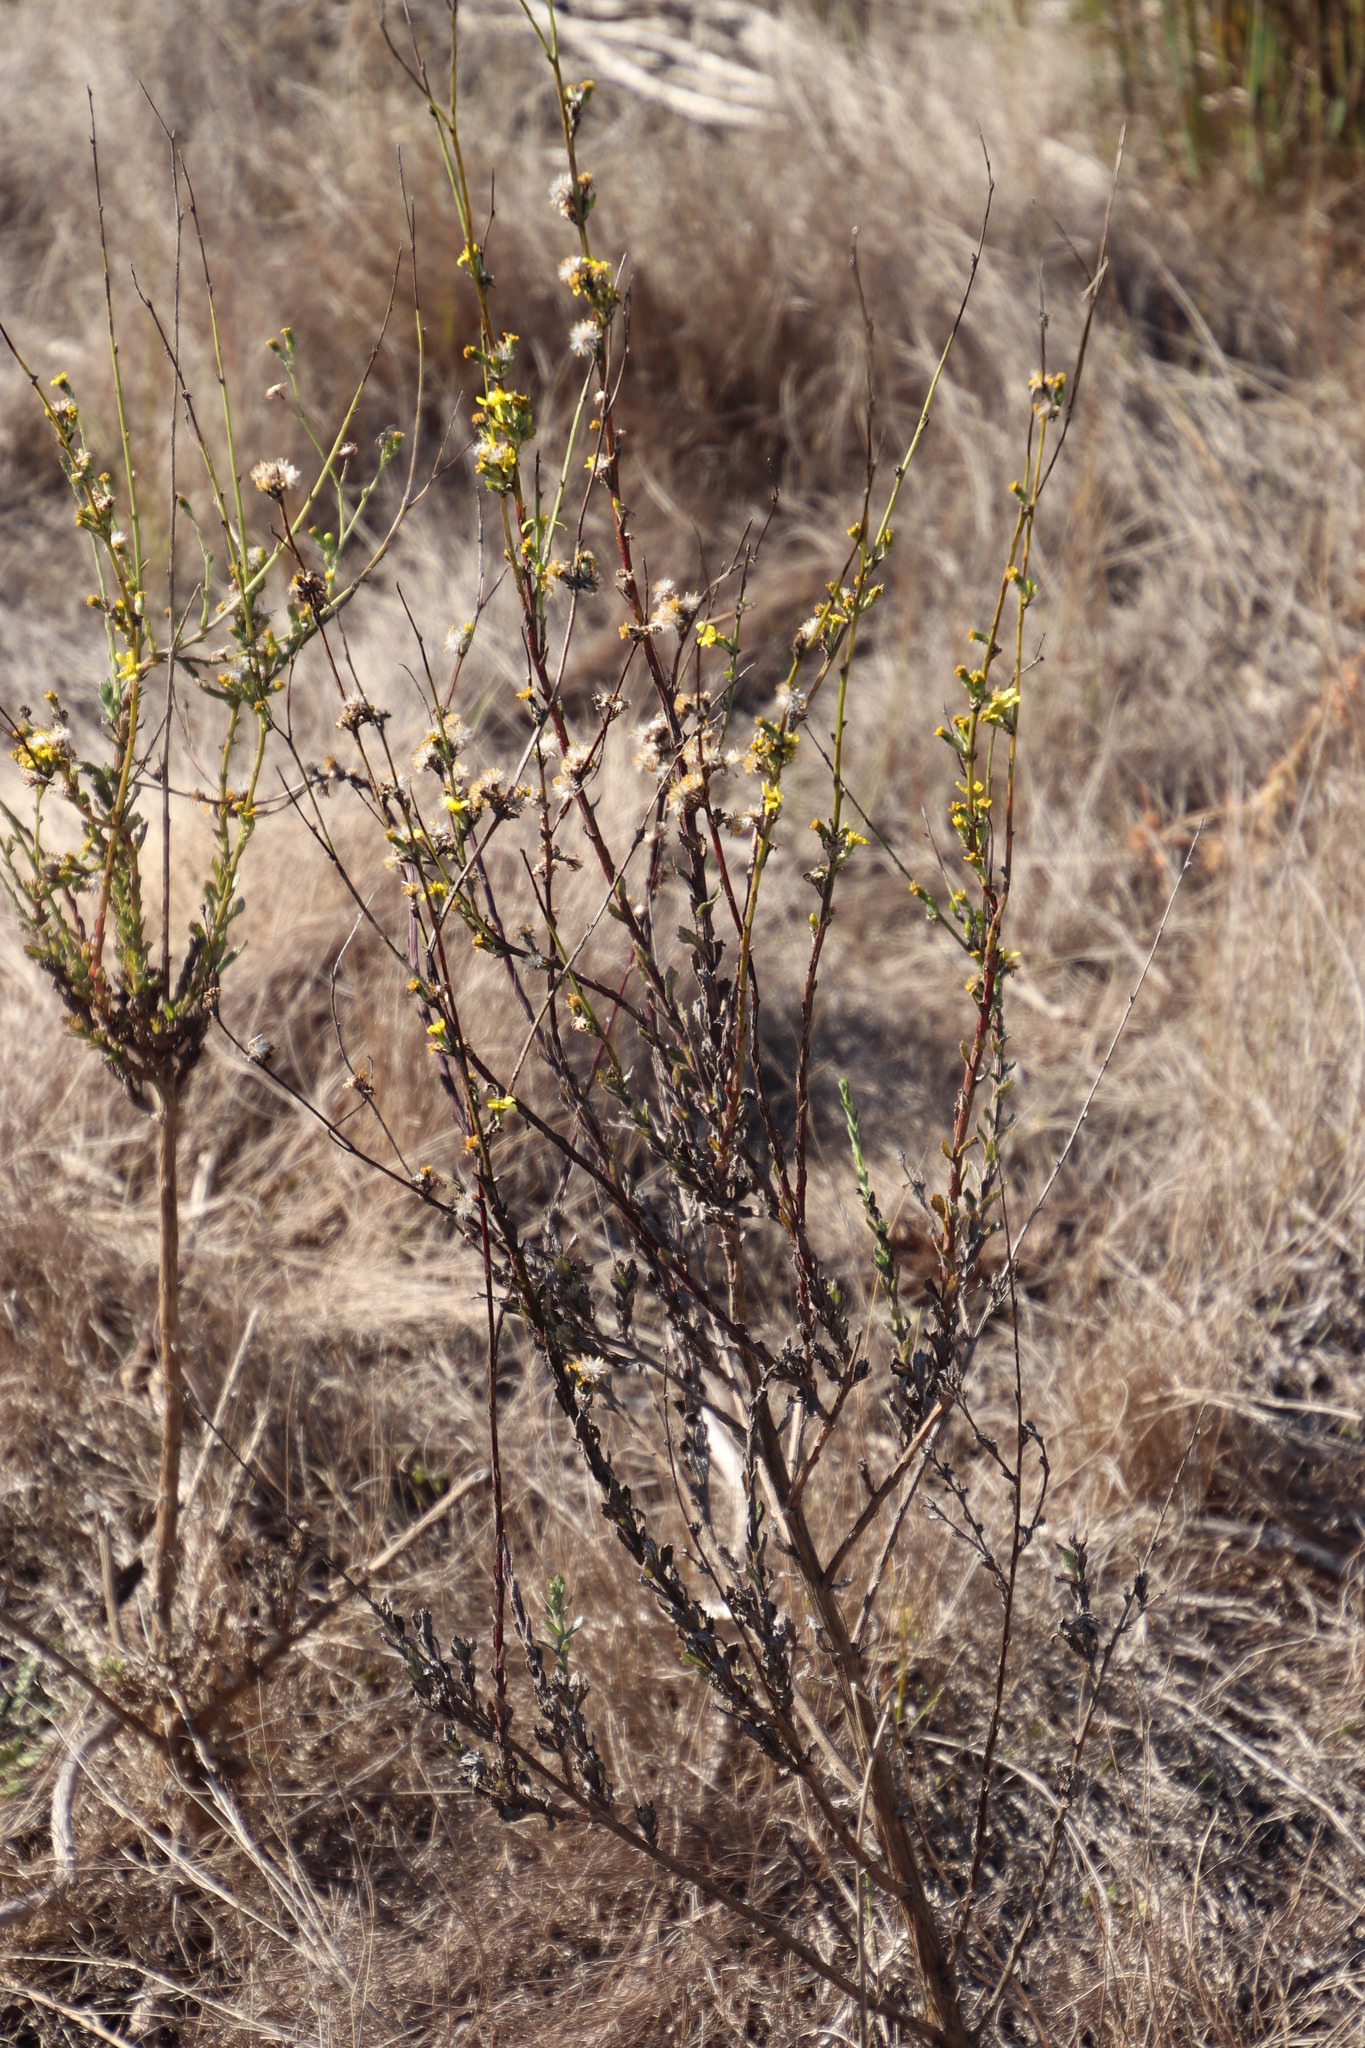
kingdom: Plantae
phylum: Tracheophyta
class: Magnoliopsida
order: Asterales
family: Asteraceae
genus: Senecio
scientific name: Senecio pubigerus
